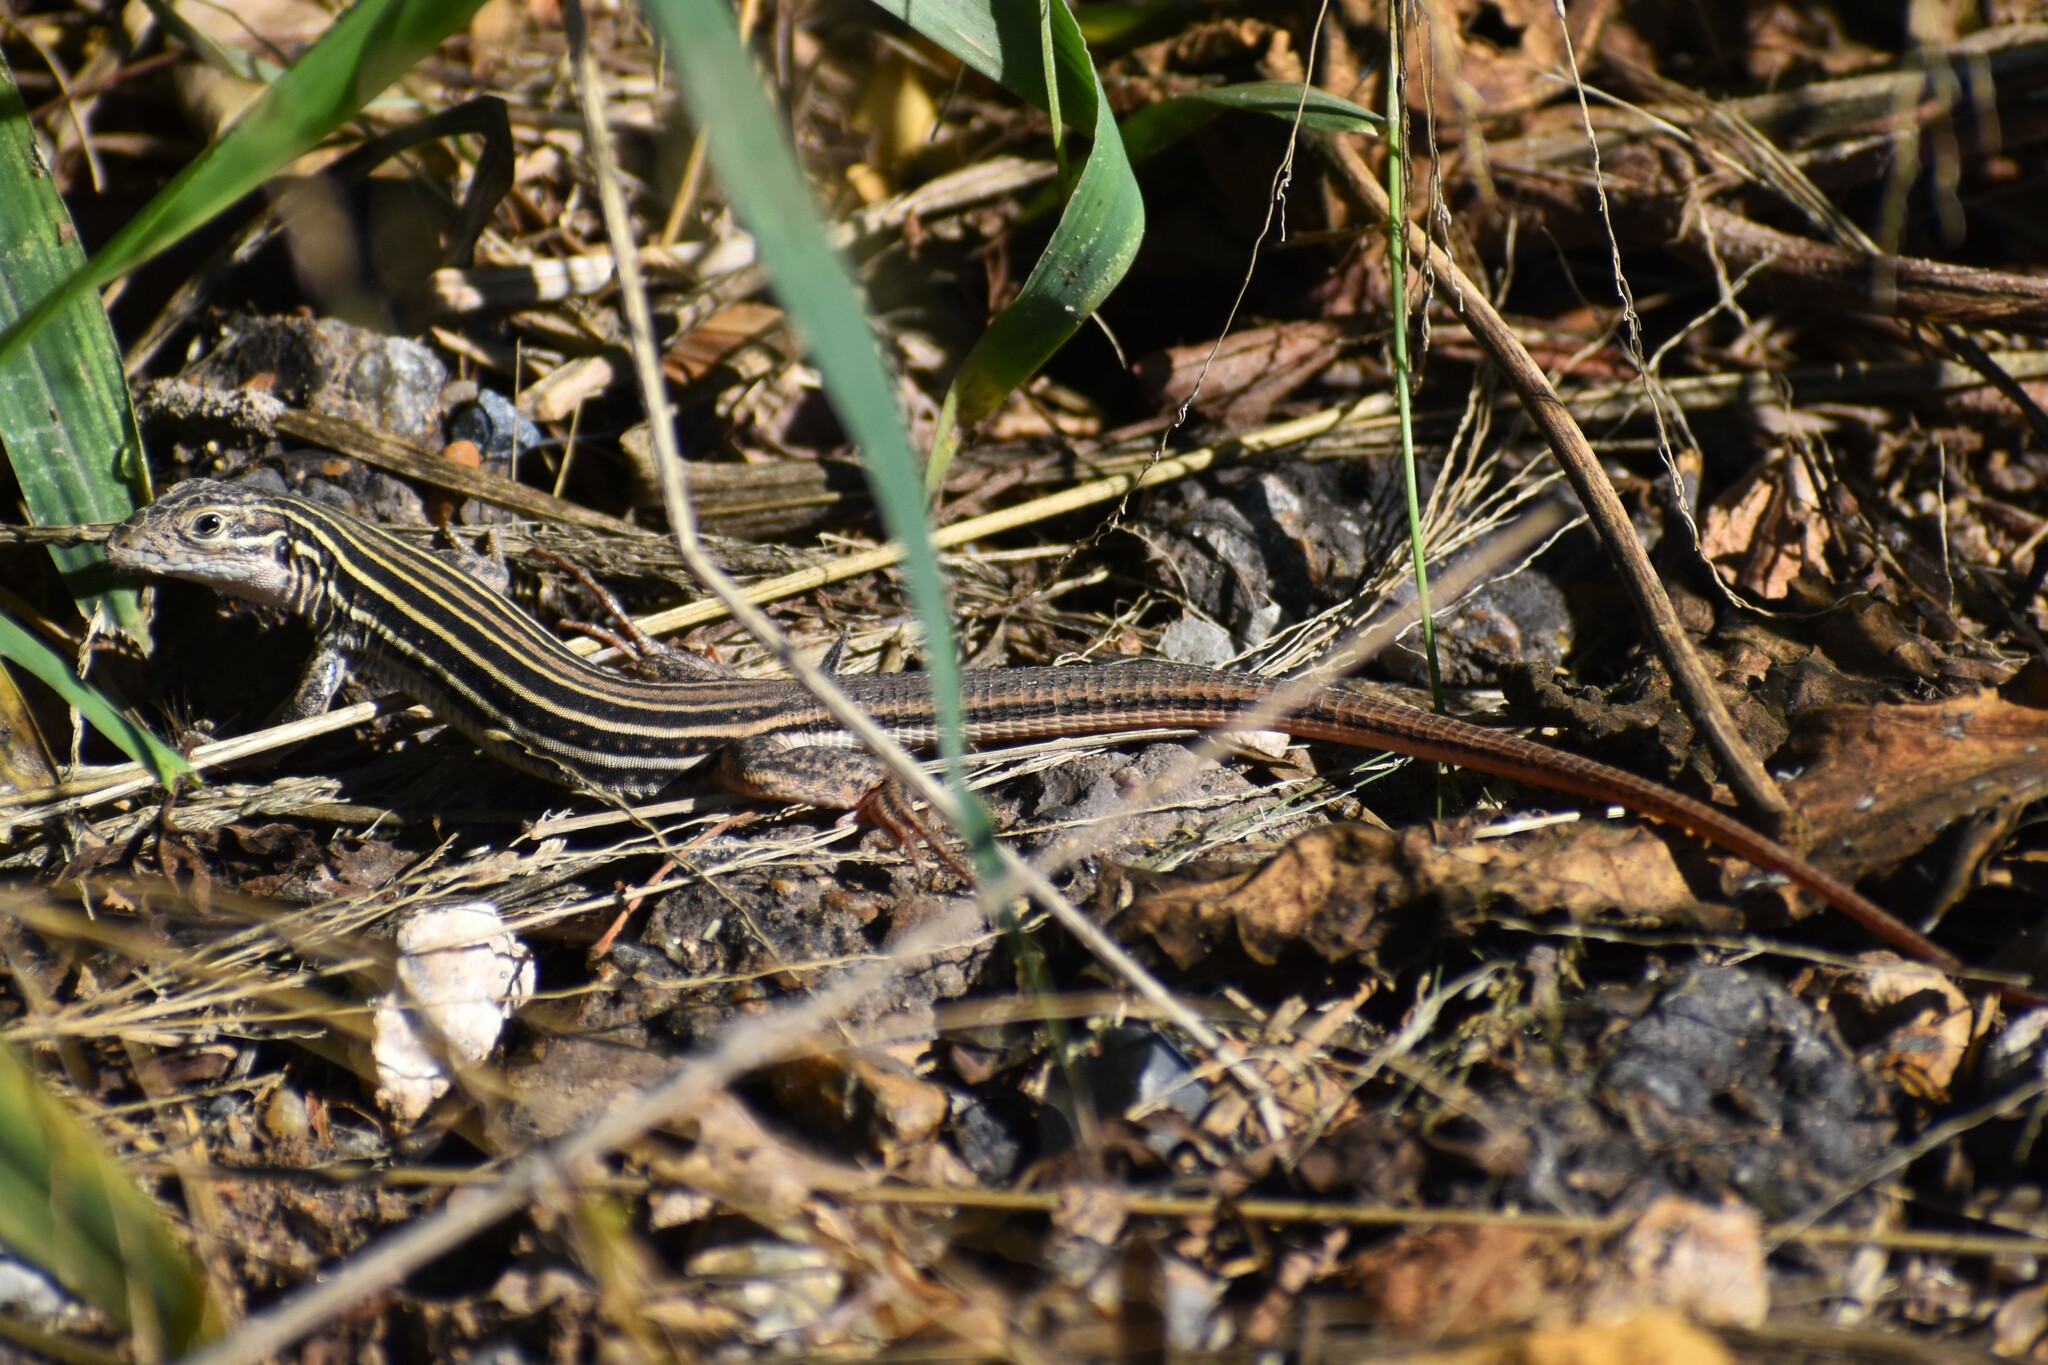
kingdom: Animalia
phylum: Chordata
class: Squamata
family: Teiidae
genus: Aspidoscelis
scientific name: Aspidoscelis gularis
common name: Eastern spotted whiptail
